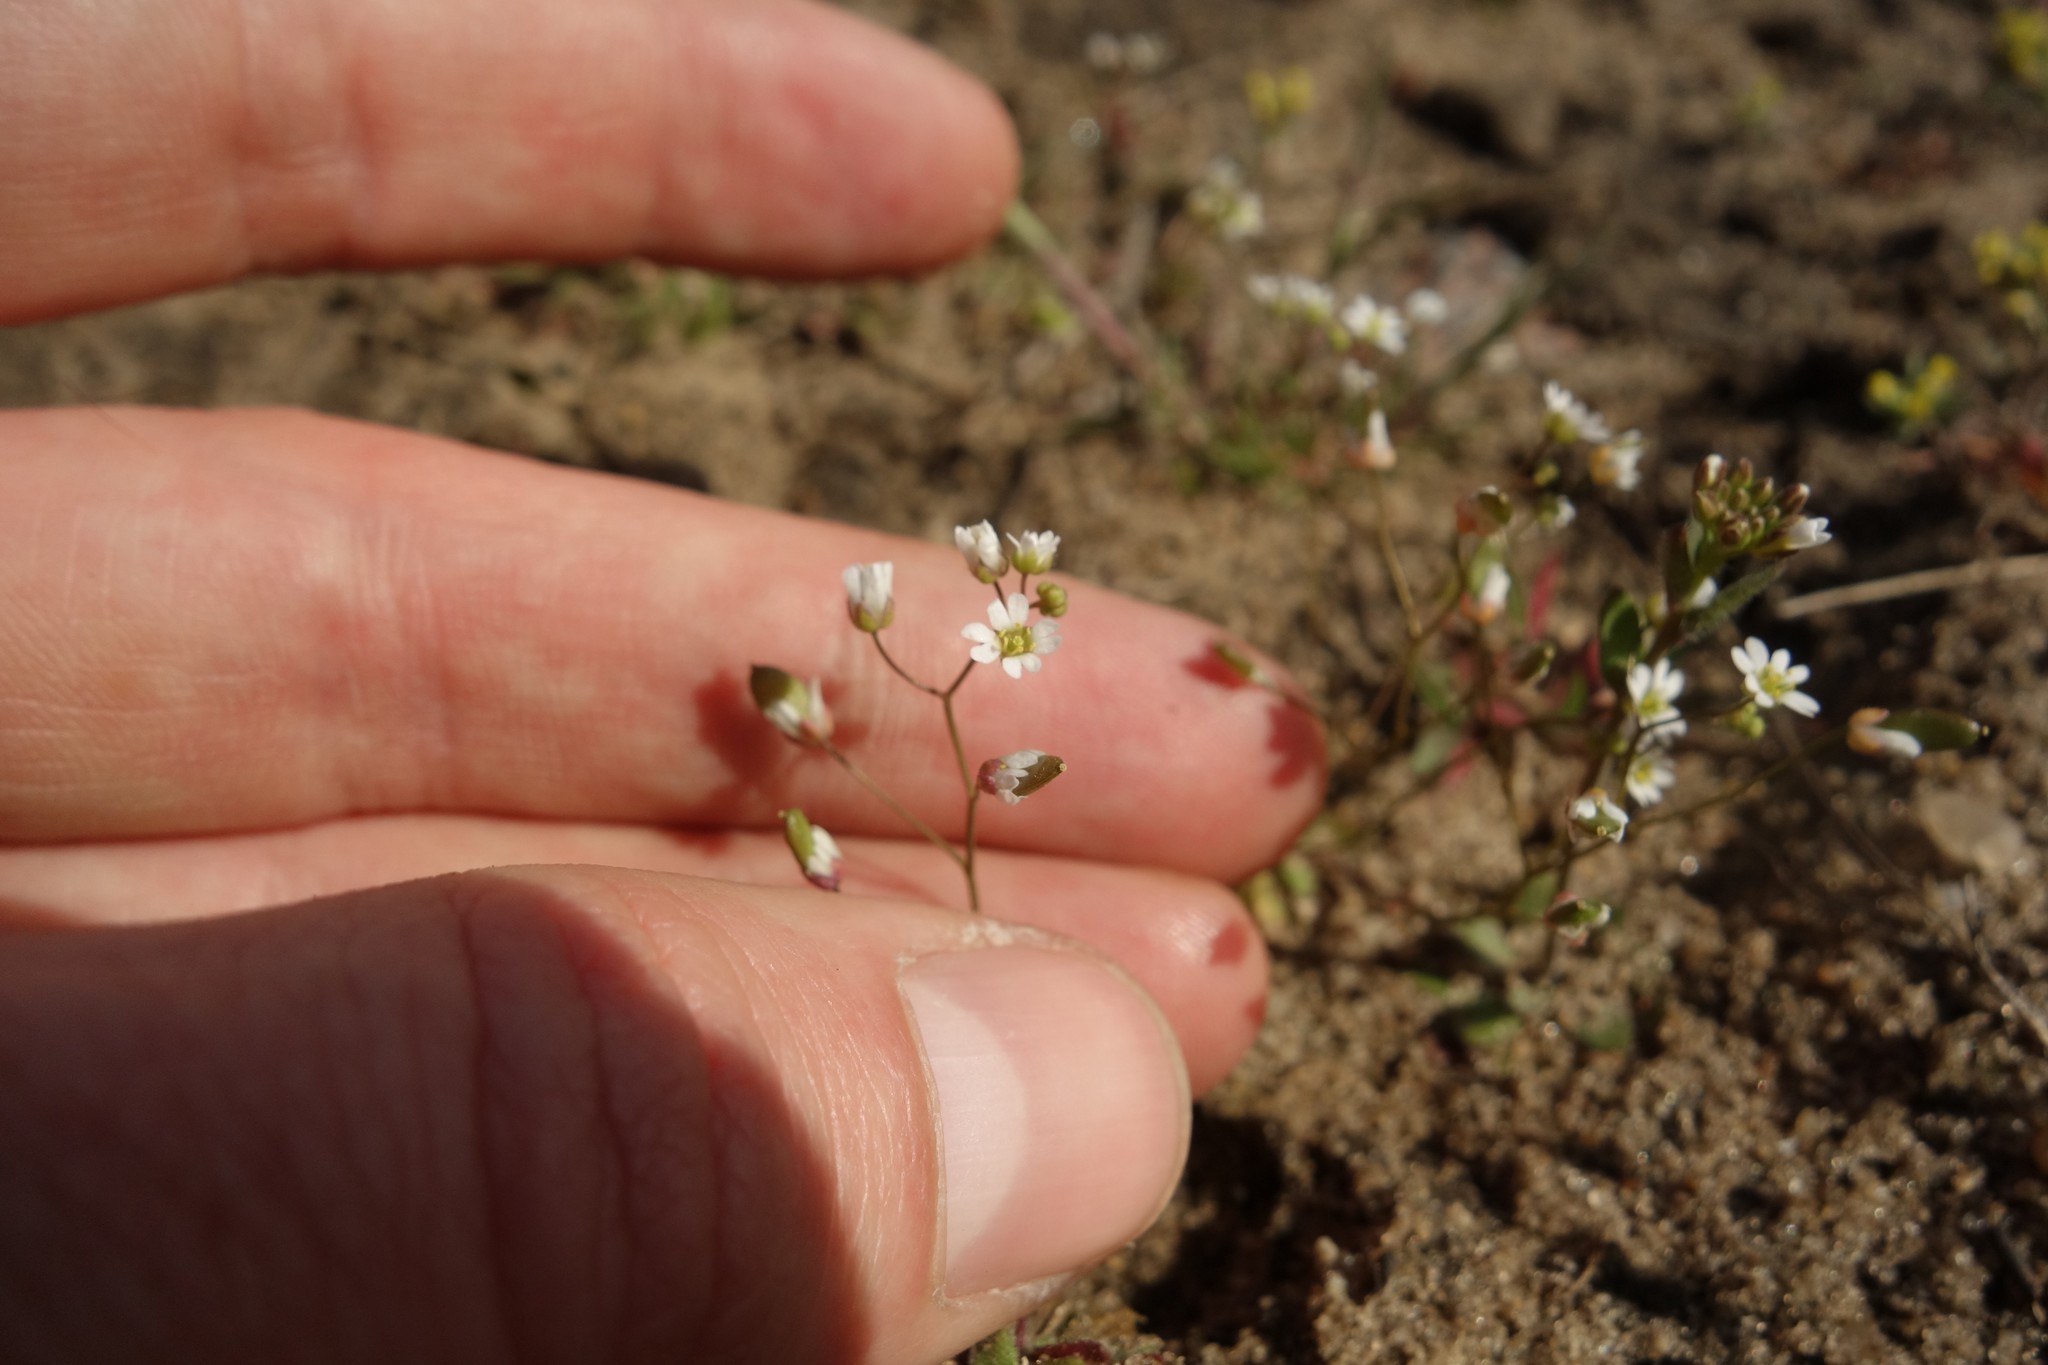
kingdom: Plantae
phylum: Tracheophyta
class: Magnoliopsida
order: Brassicales
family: Brassicaceae
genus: Draba
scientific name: Draba verna
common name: Spring draba
